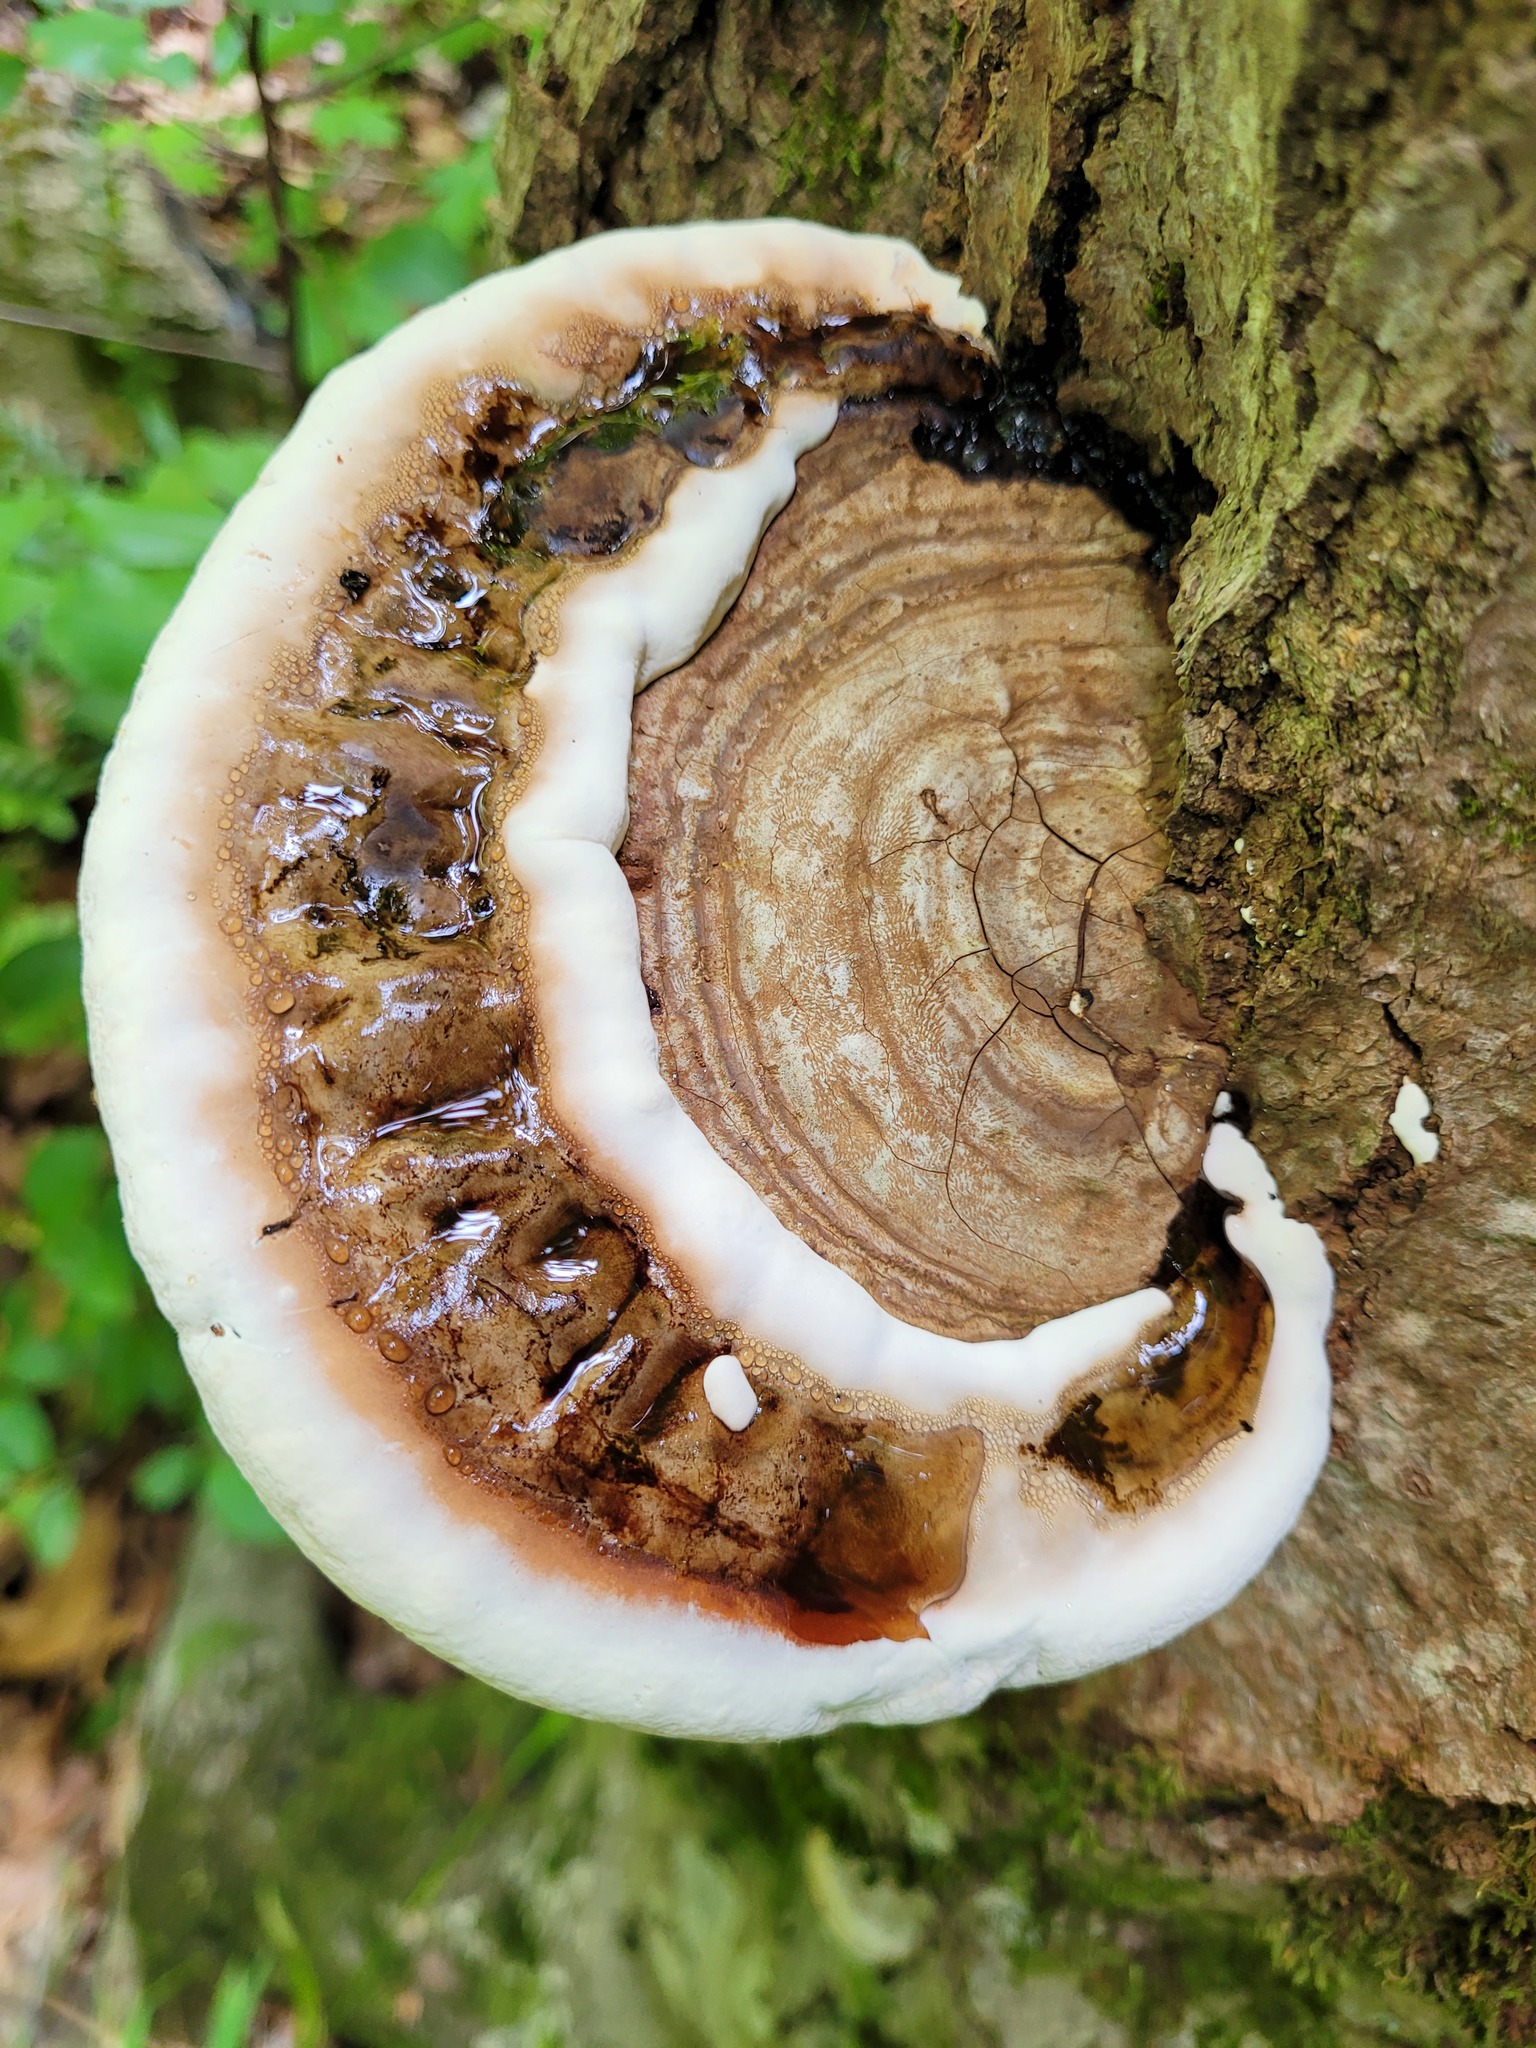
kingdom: Fungi
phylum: Basidiomycota
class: Agaricomycetes
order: Polyporales
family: Polyporaceae
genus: Ganoderma
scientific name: Ganoderma applanatum
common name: Artist's bracket
